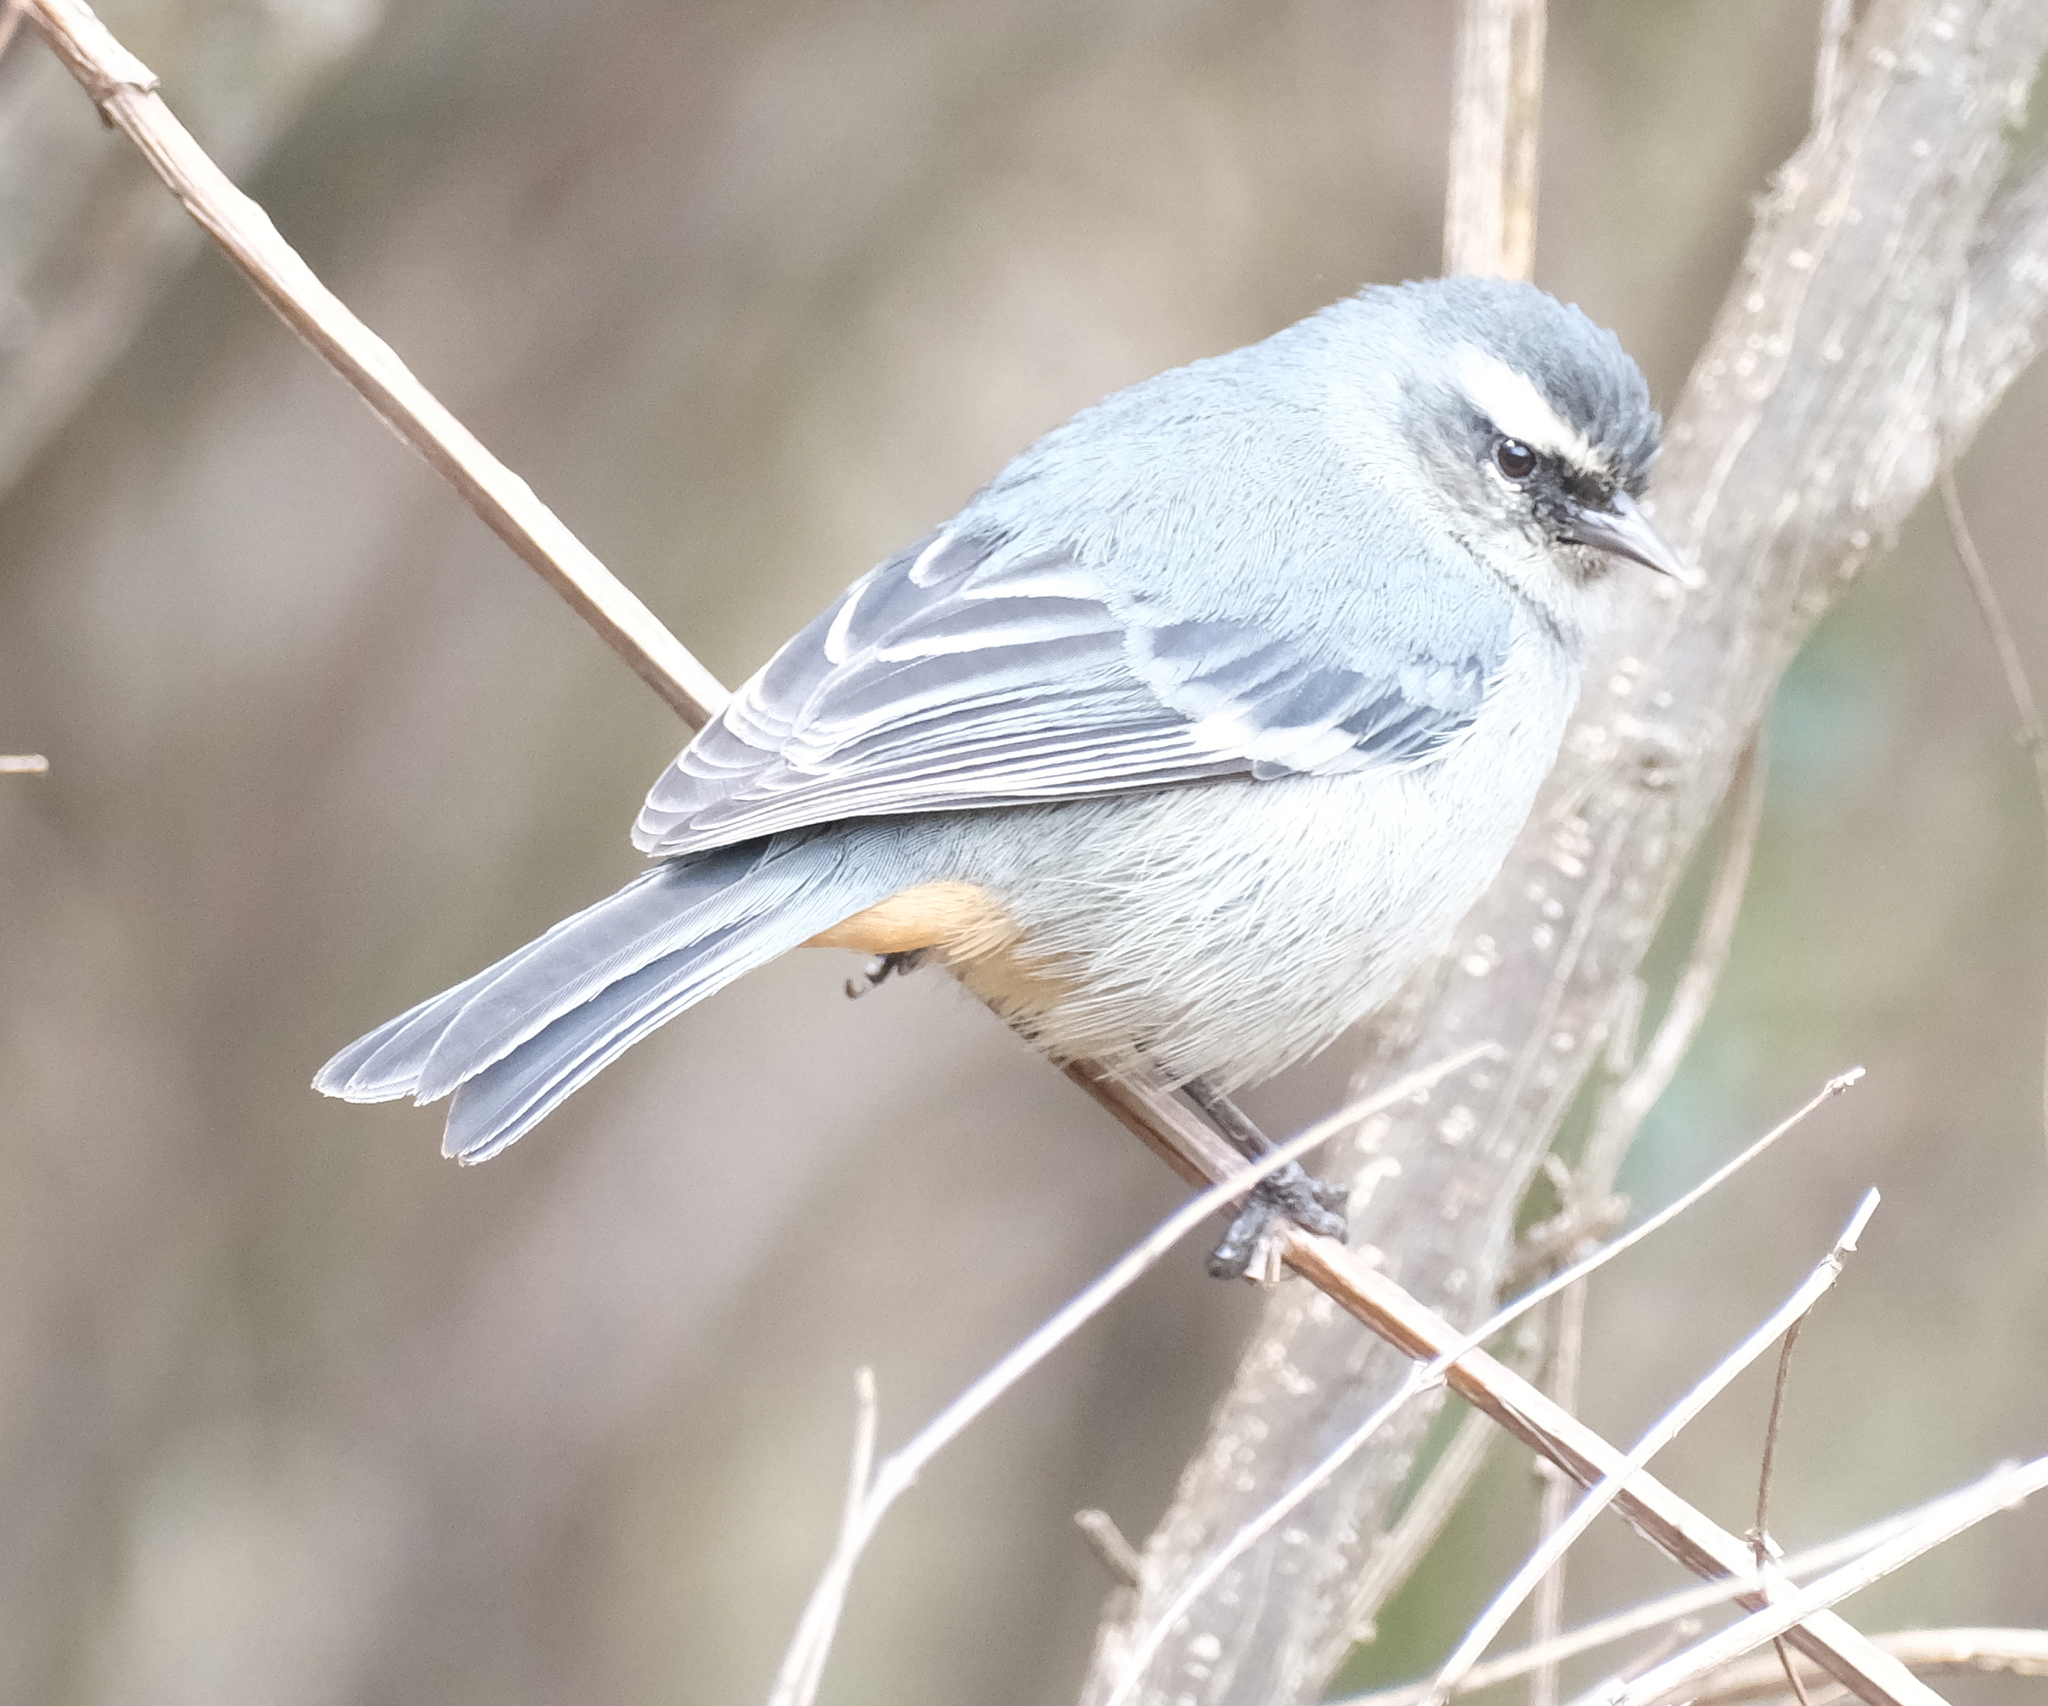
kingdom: Animalia
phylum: Chordata
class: Aves
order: Passeriformes
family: Thraupidae
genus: Conirostrum
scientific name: Conirostrum cinereum
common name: Cinereous conebill
